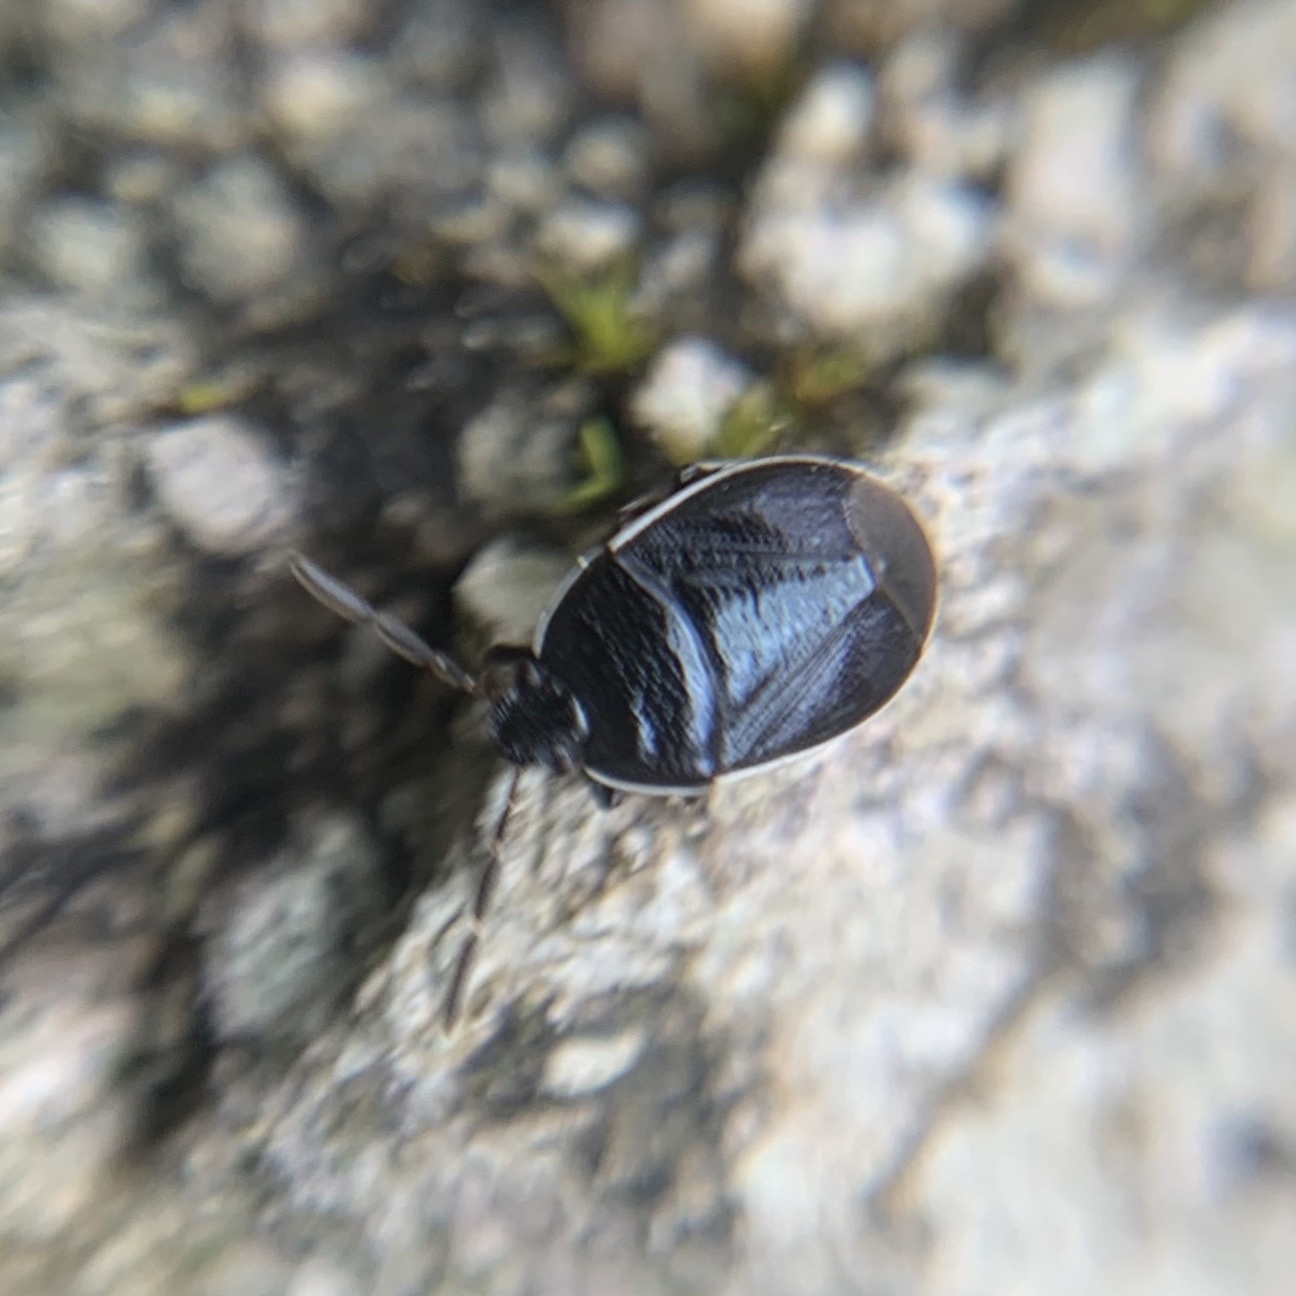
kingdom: Animalia
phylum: Arthropoda
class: Insecta
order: Hemiptera
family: Cydnidae
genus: Sehirus
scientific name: Sehirus cinctus
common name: White-margined burrower bug
